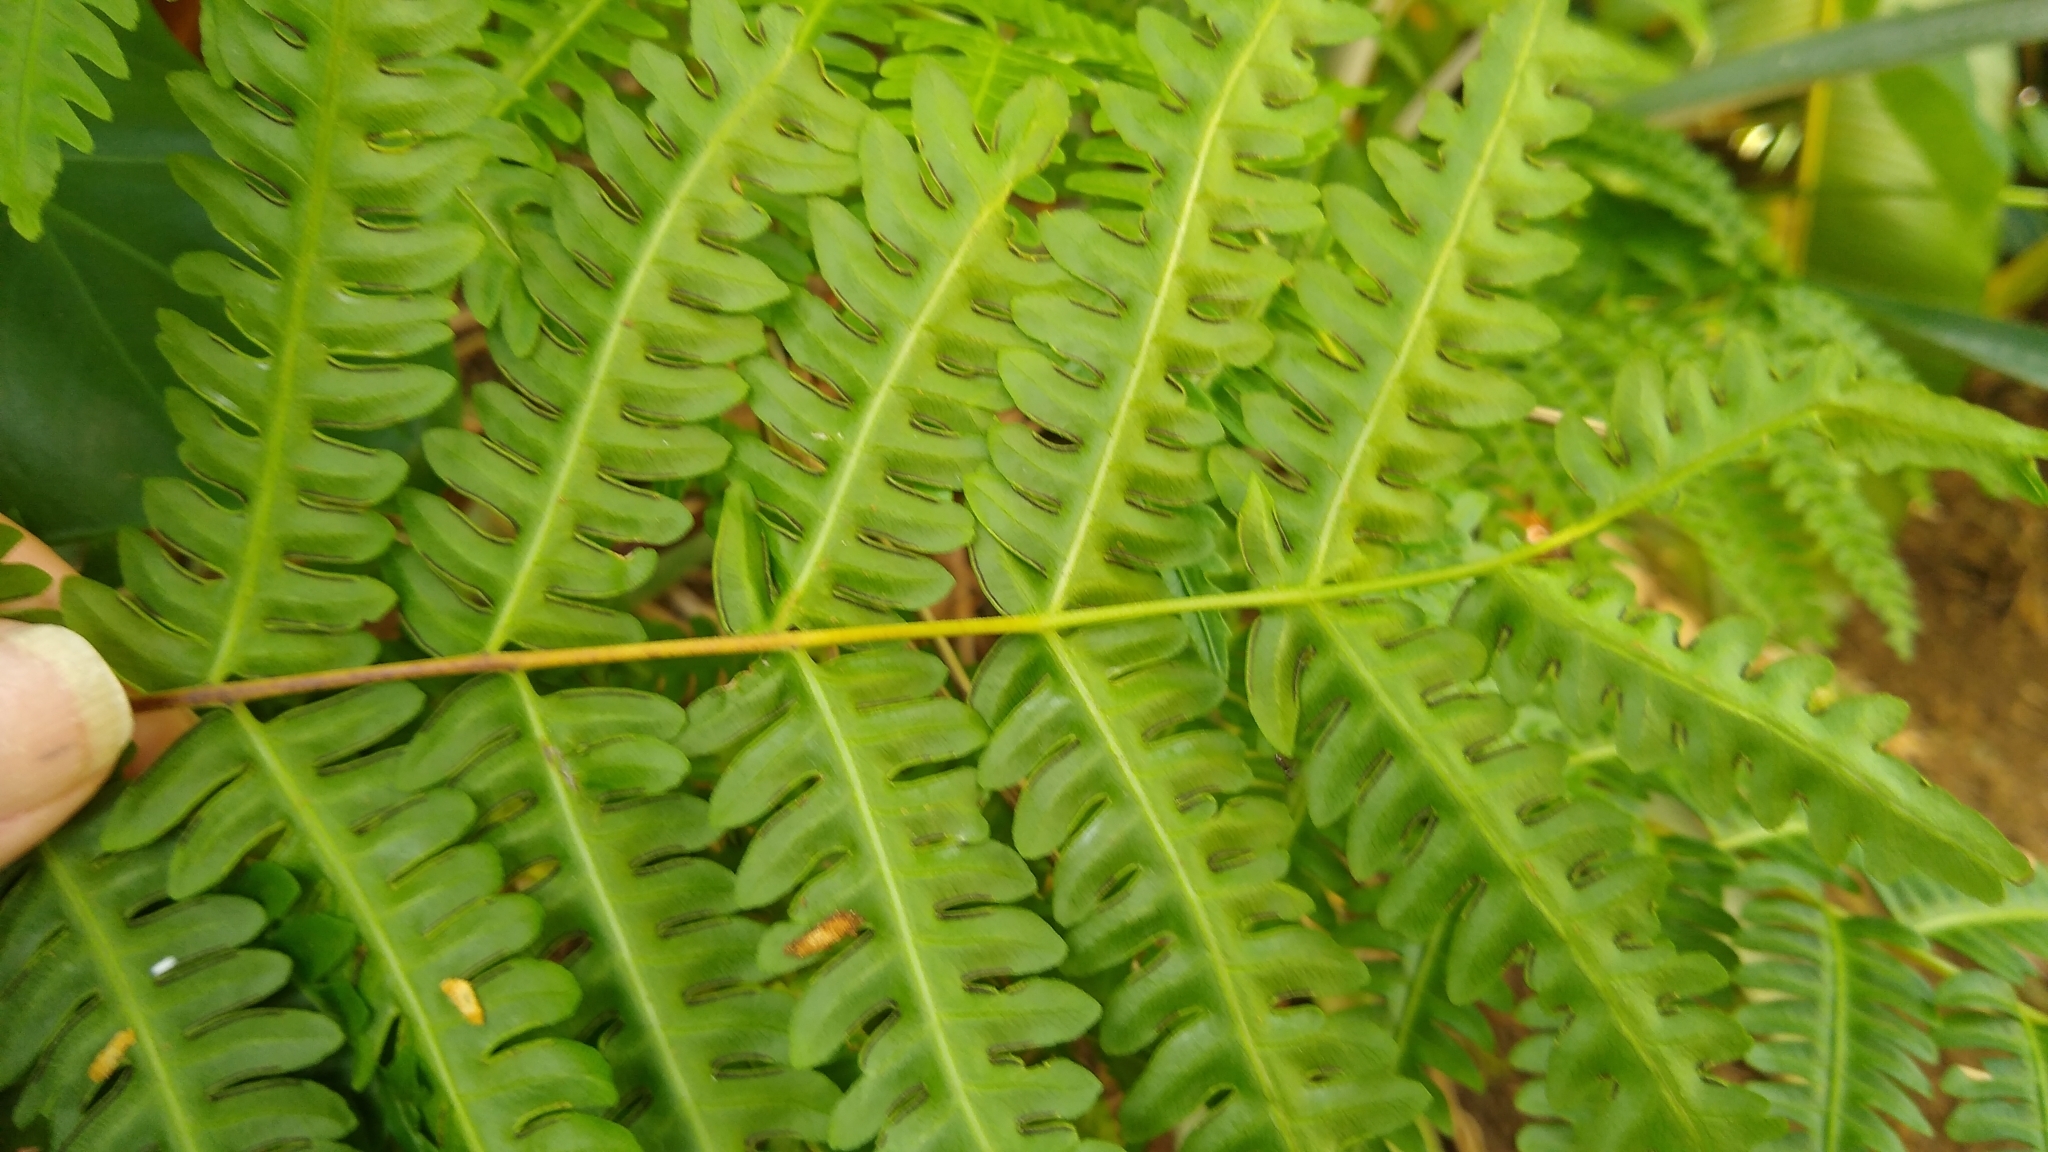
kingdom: Plantae
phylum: Tracheophyta
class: Polypodiopsida
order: Polypodiales
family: Pteridaceae
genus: Pteris
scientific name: Pteris tripartita
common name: Giant brake
